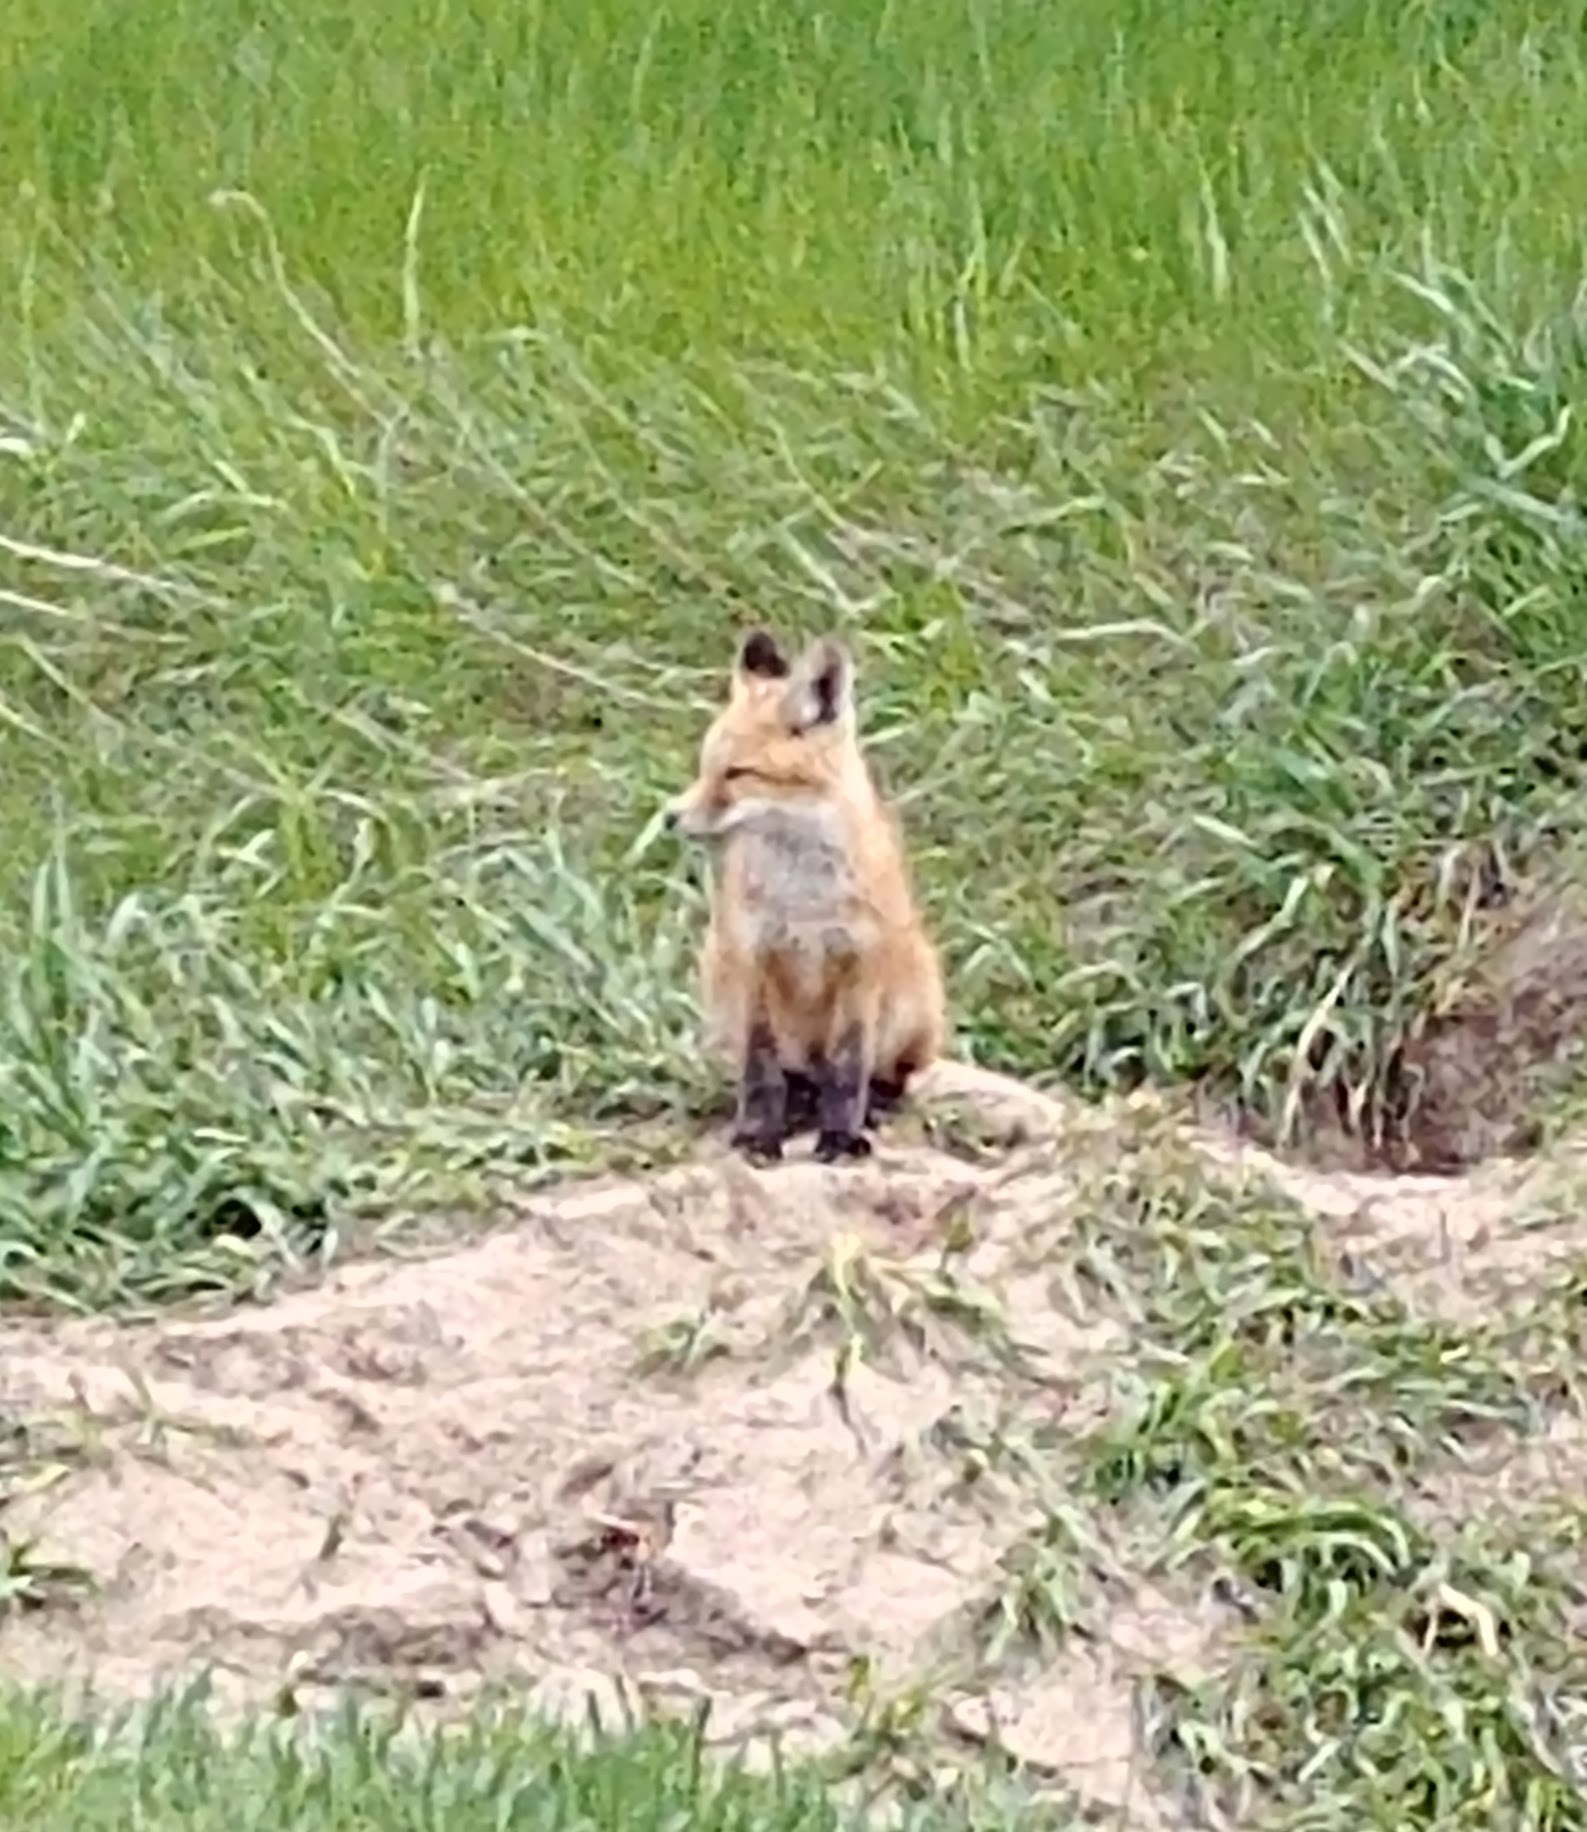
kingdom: Animalia
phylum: Chordata
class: Mammalia
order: Carnivora
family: Canidae
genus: Vulpes
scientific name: Vulpes vulpes
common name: Red fox
